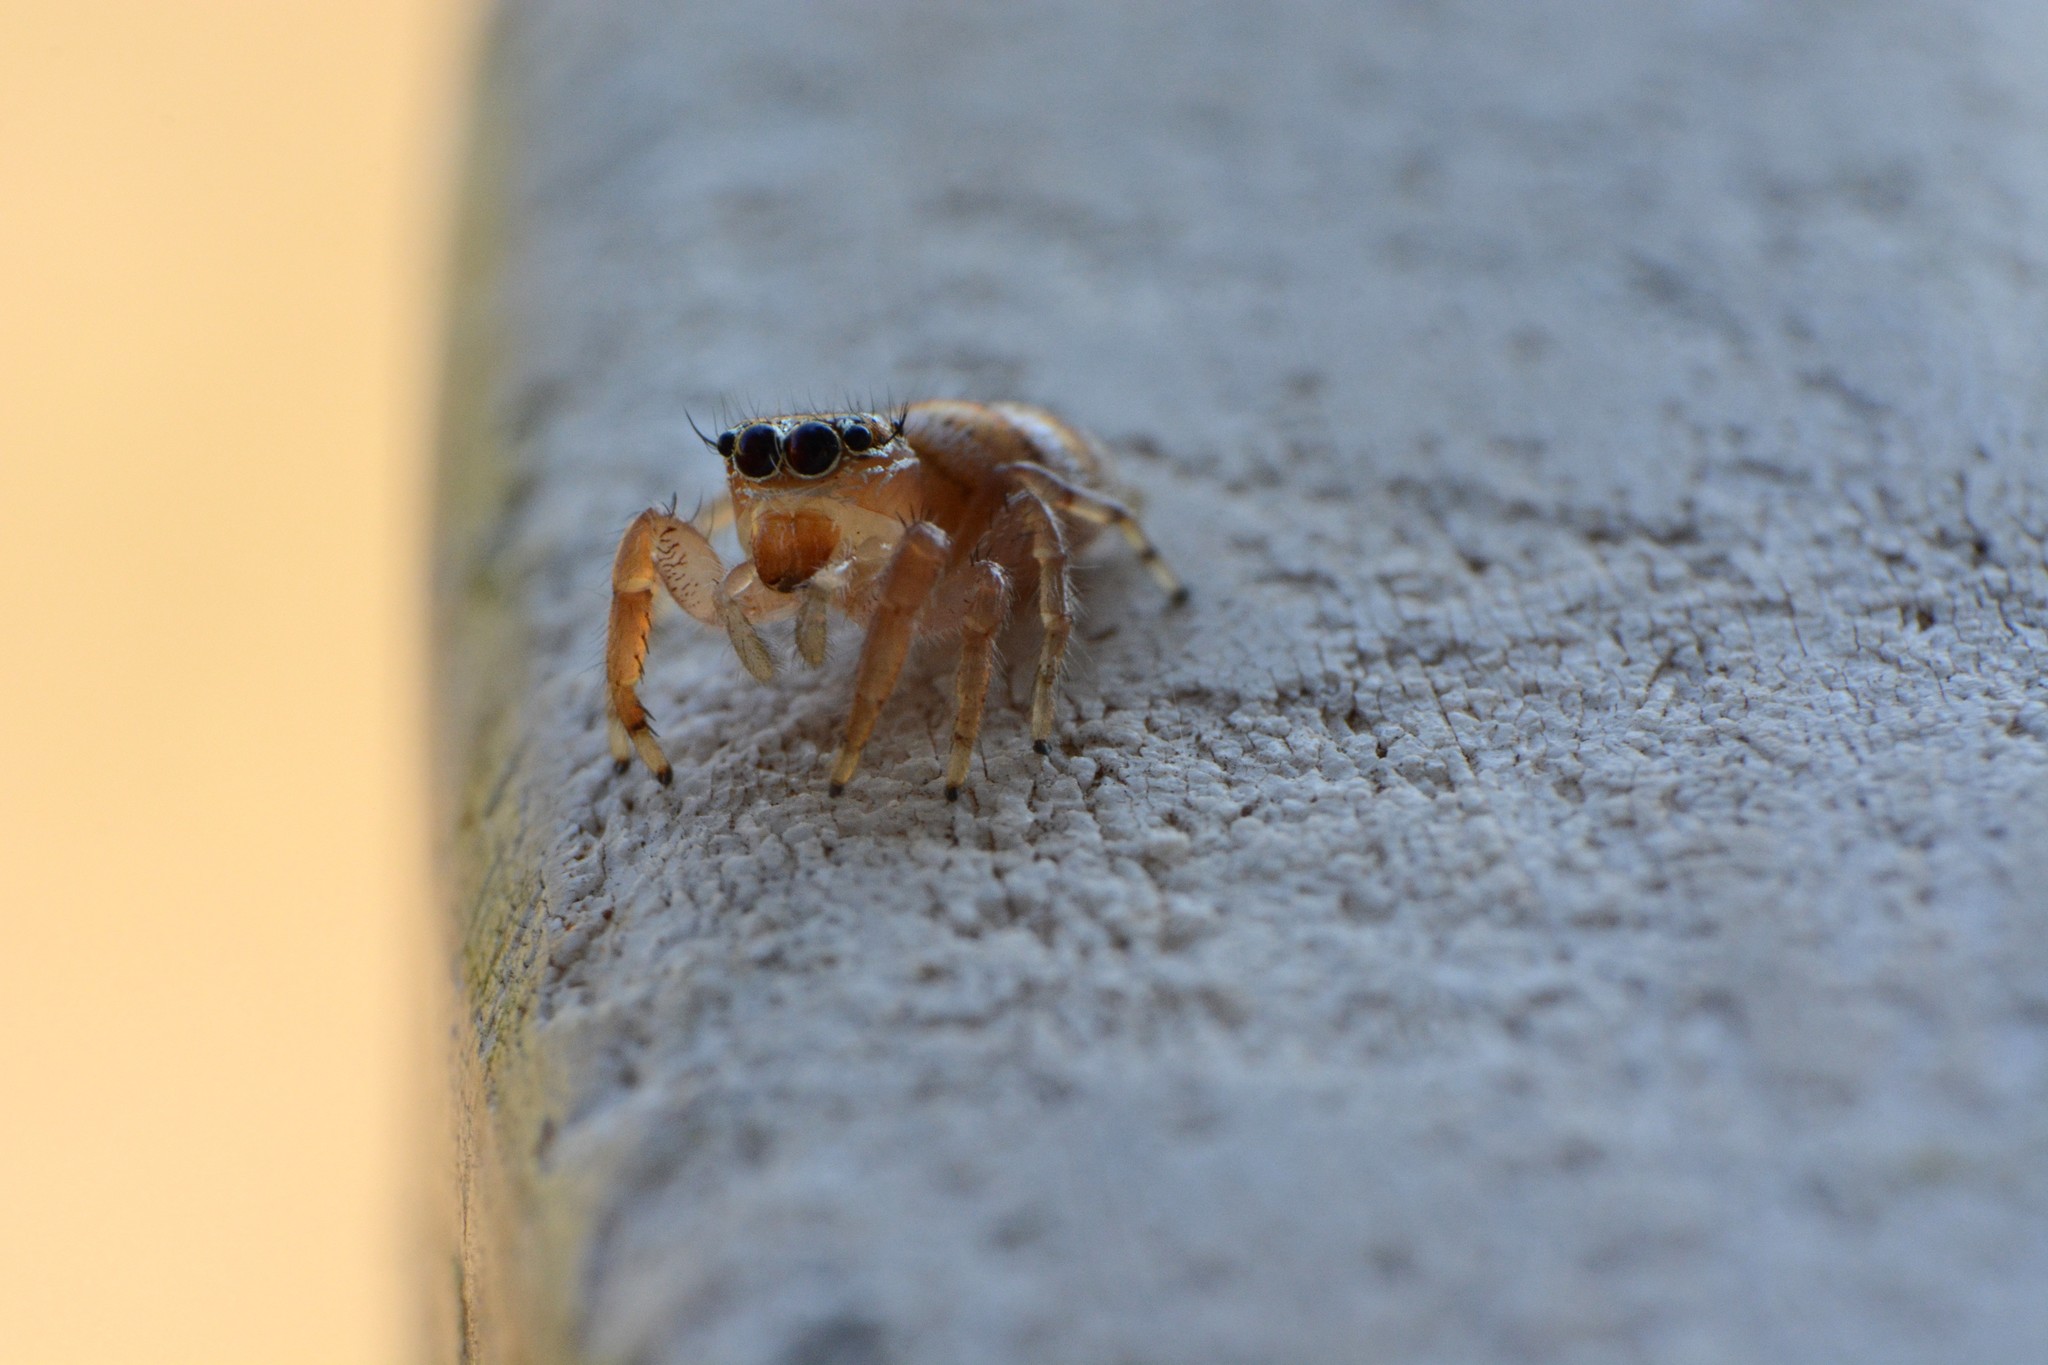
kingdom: Animalia
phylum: Arthropoda
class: Arachnida
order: Araneae
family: Salticidae
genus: Thyene
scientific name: Thyene natalii
